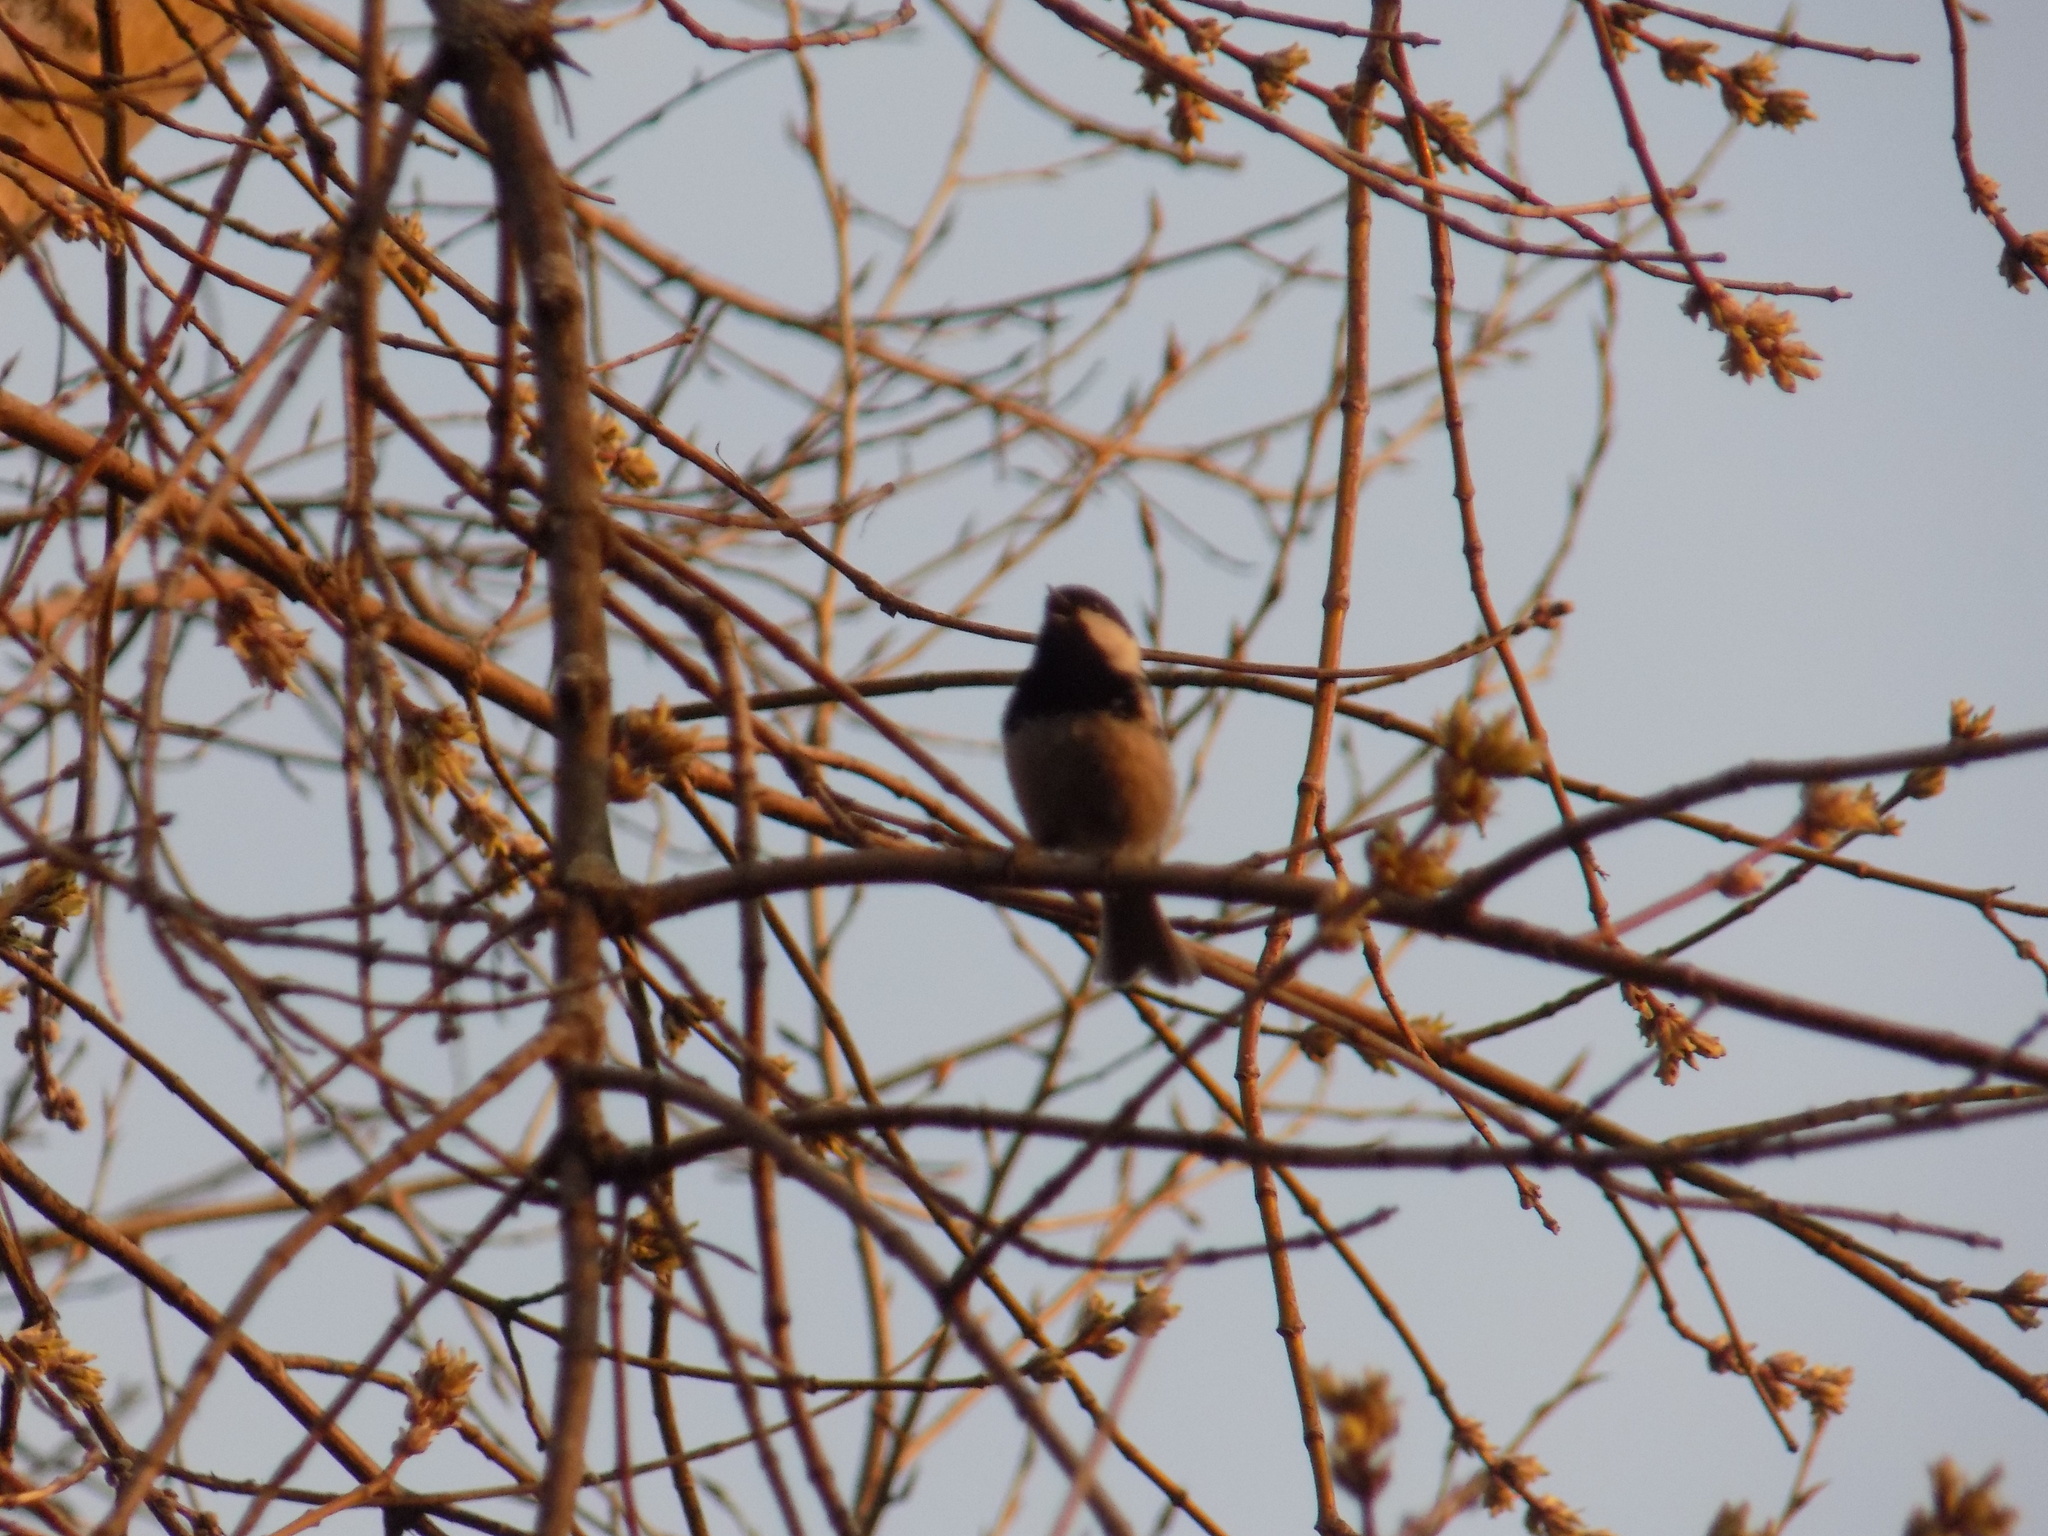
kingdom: Animalia
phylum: Chordata
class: Aves
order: Passeriformes
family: Paridae
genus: Periparus
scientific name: Periparus ater
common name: Coal tit
